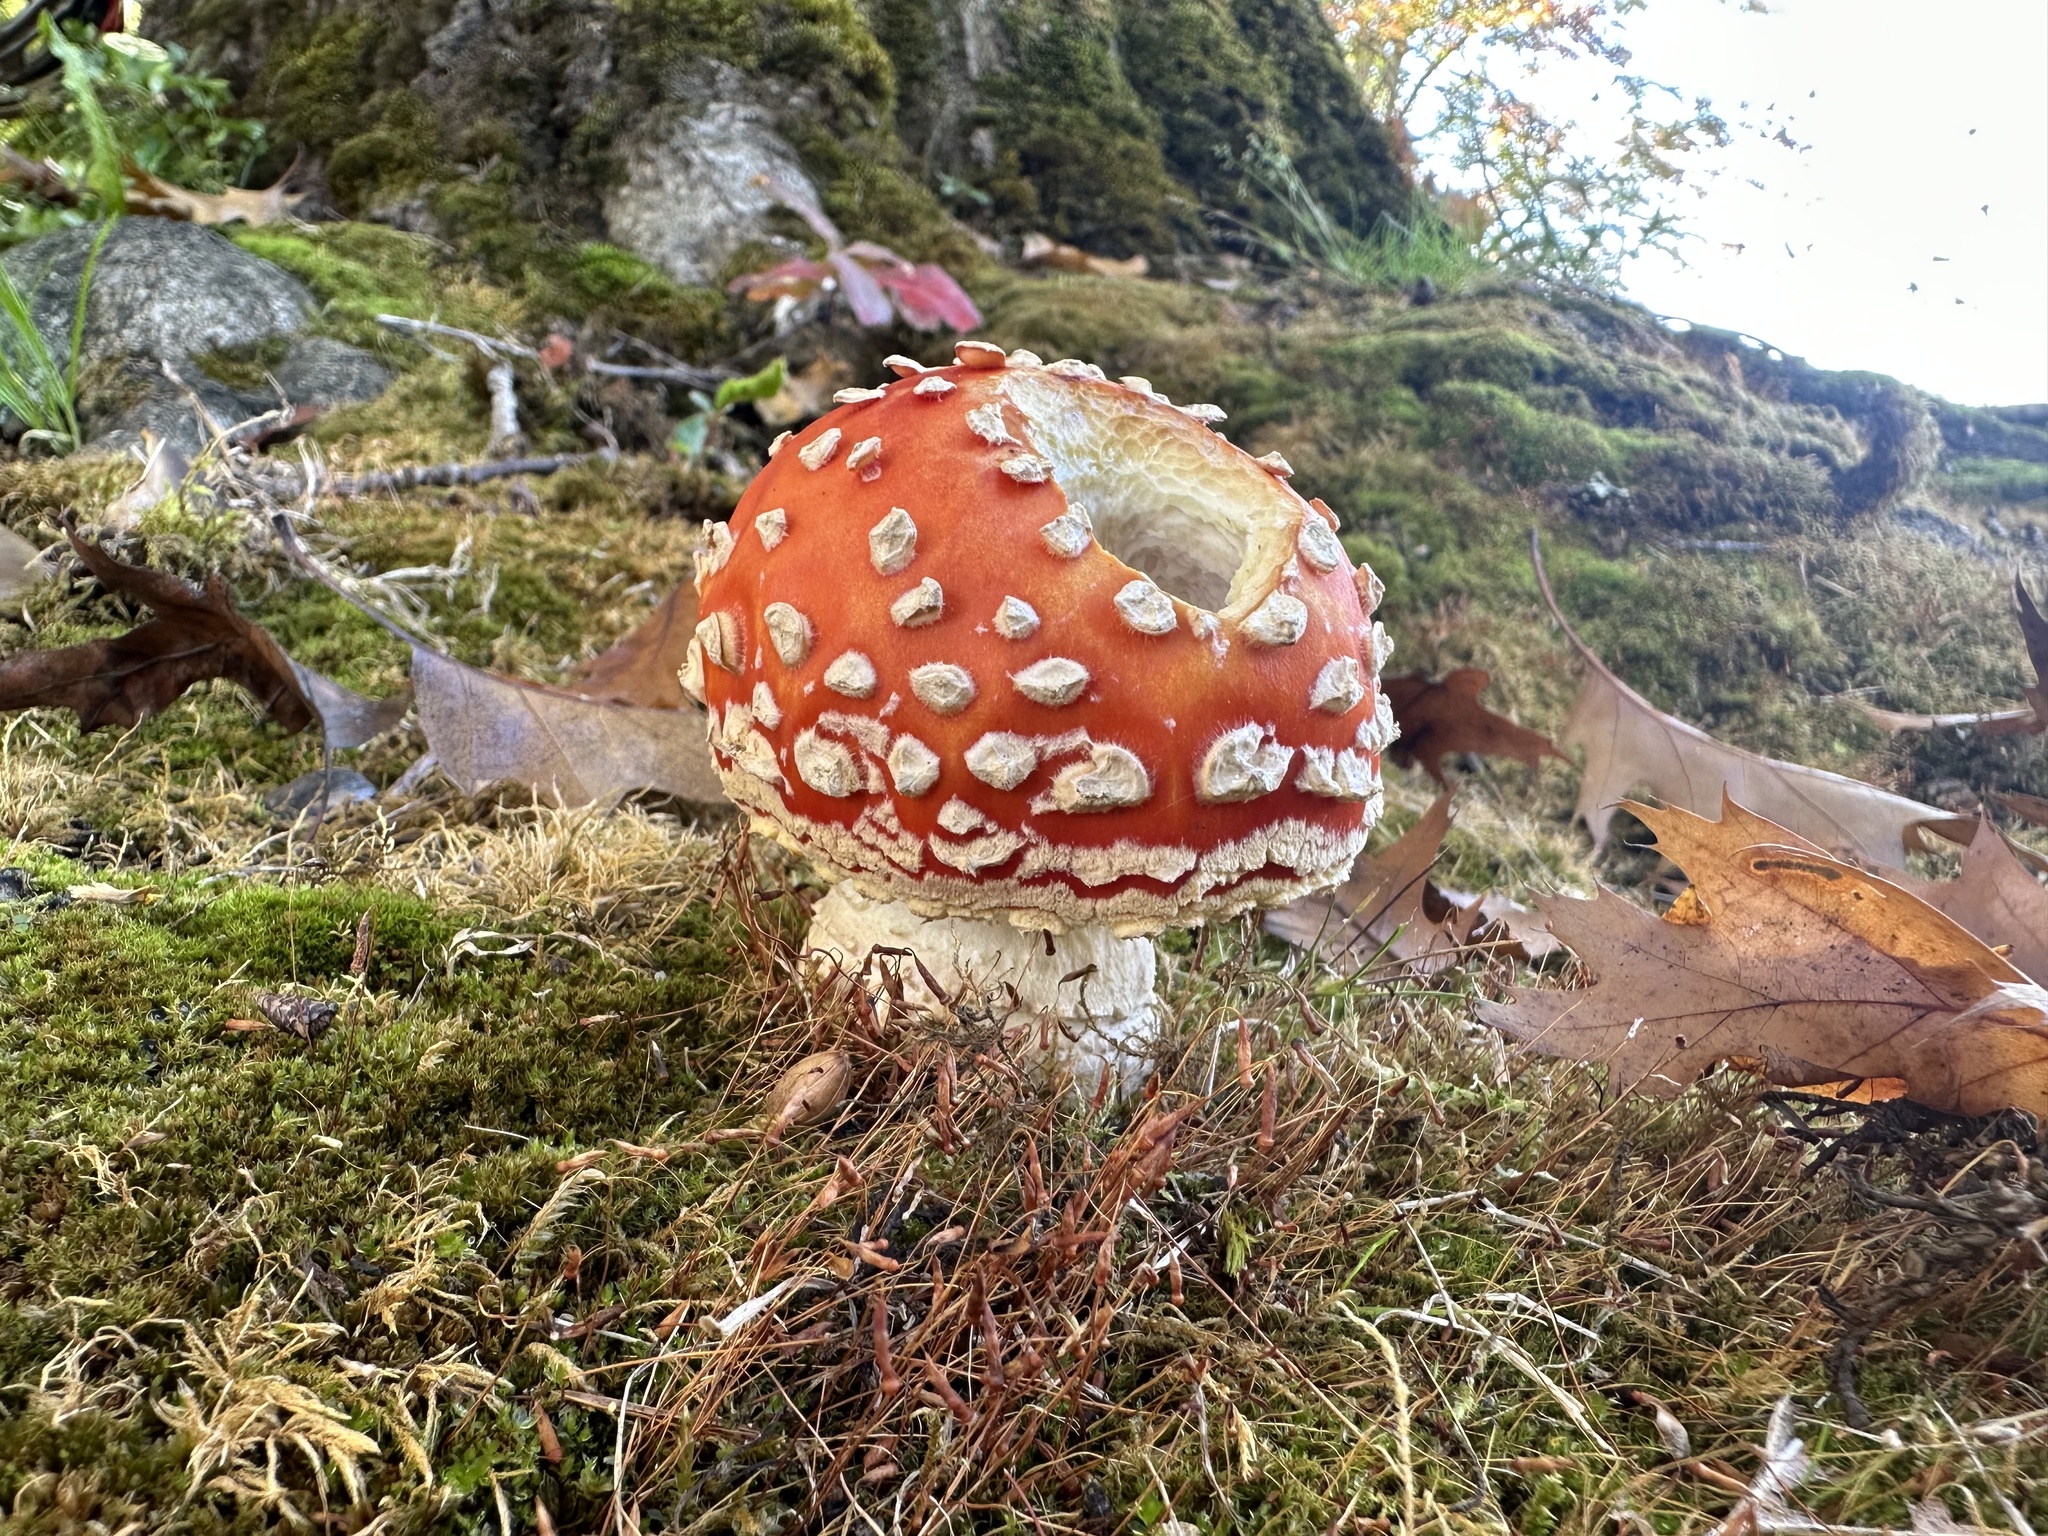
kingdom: Fungi
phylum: Basidiomycota
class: Agaricomycetes
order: Agaricales
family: Amanitaceae
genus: Amanita
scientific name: Amanita muscaria
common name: Fly agaric
